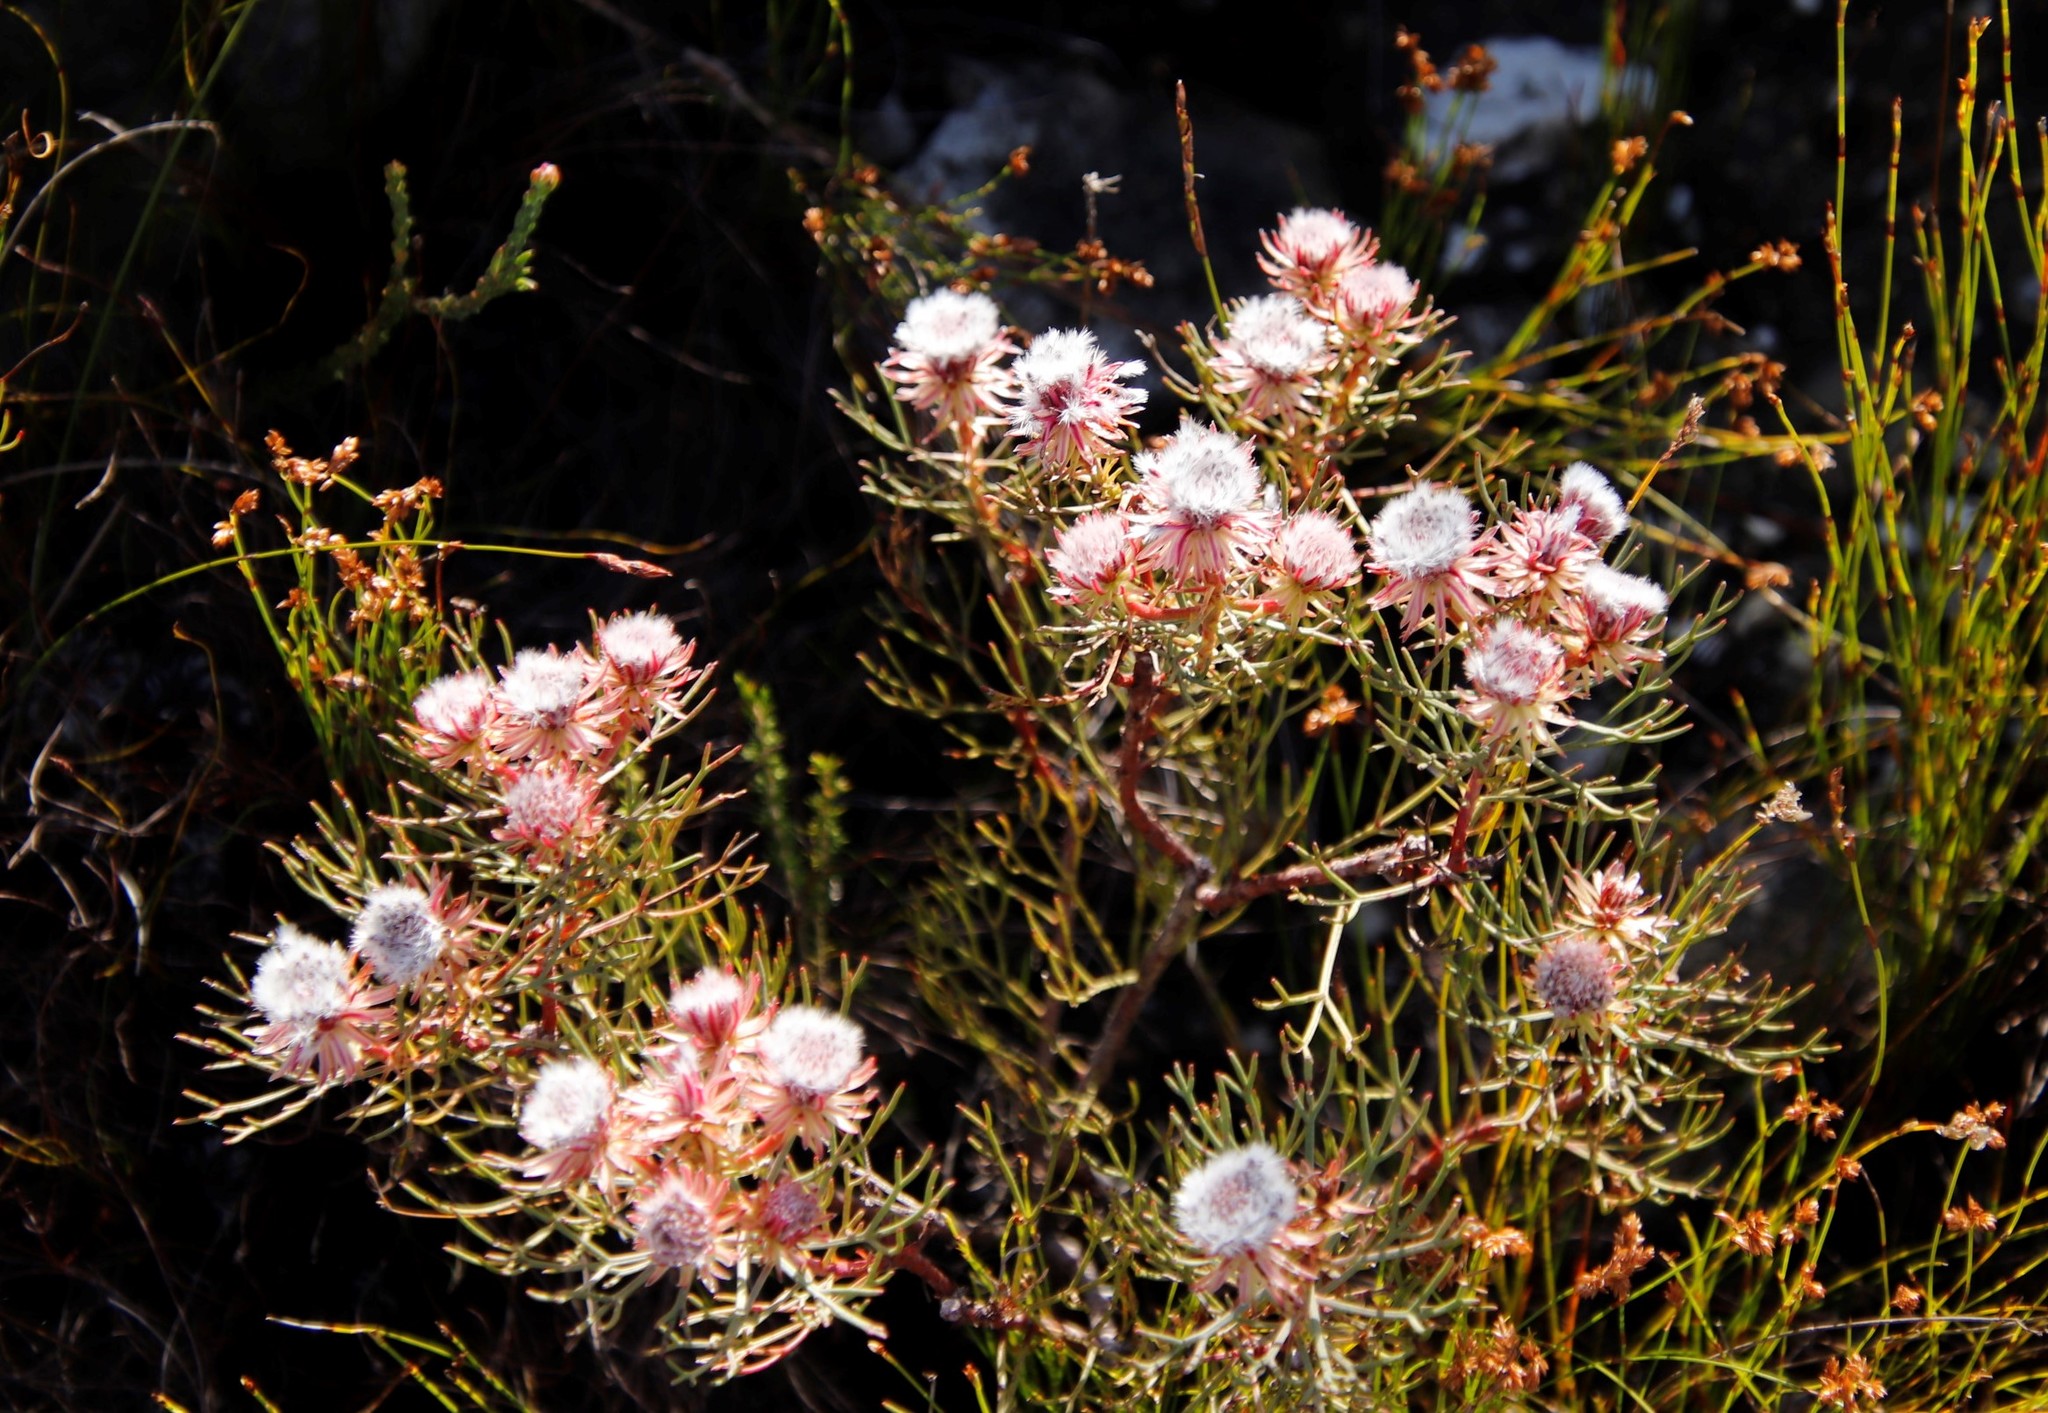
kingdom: Plantae
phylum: Tracheophyta
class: Magnoliopsida
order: Proteales
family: Proteaceae
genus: Serruria
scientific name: Serruria phylicoides
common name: Bearded spiderhead
